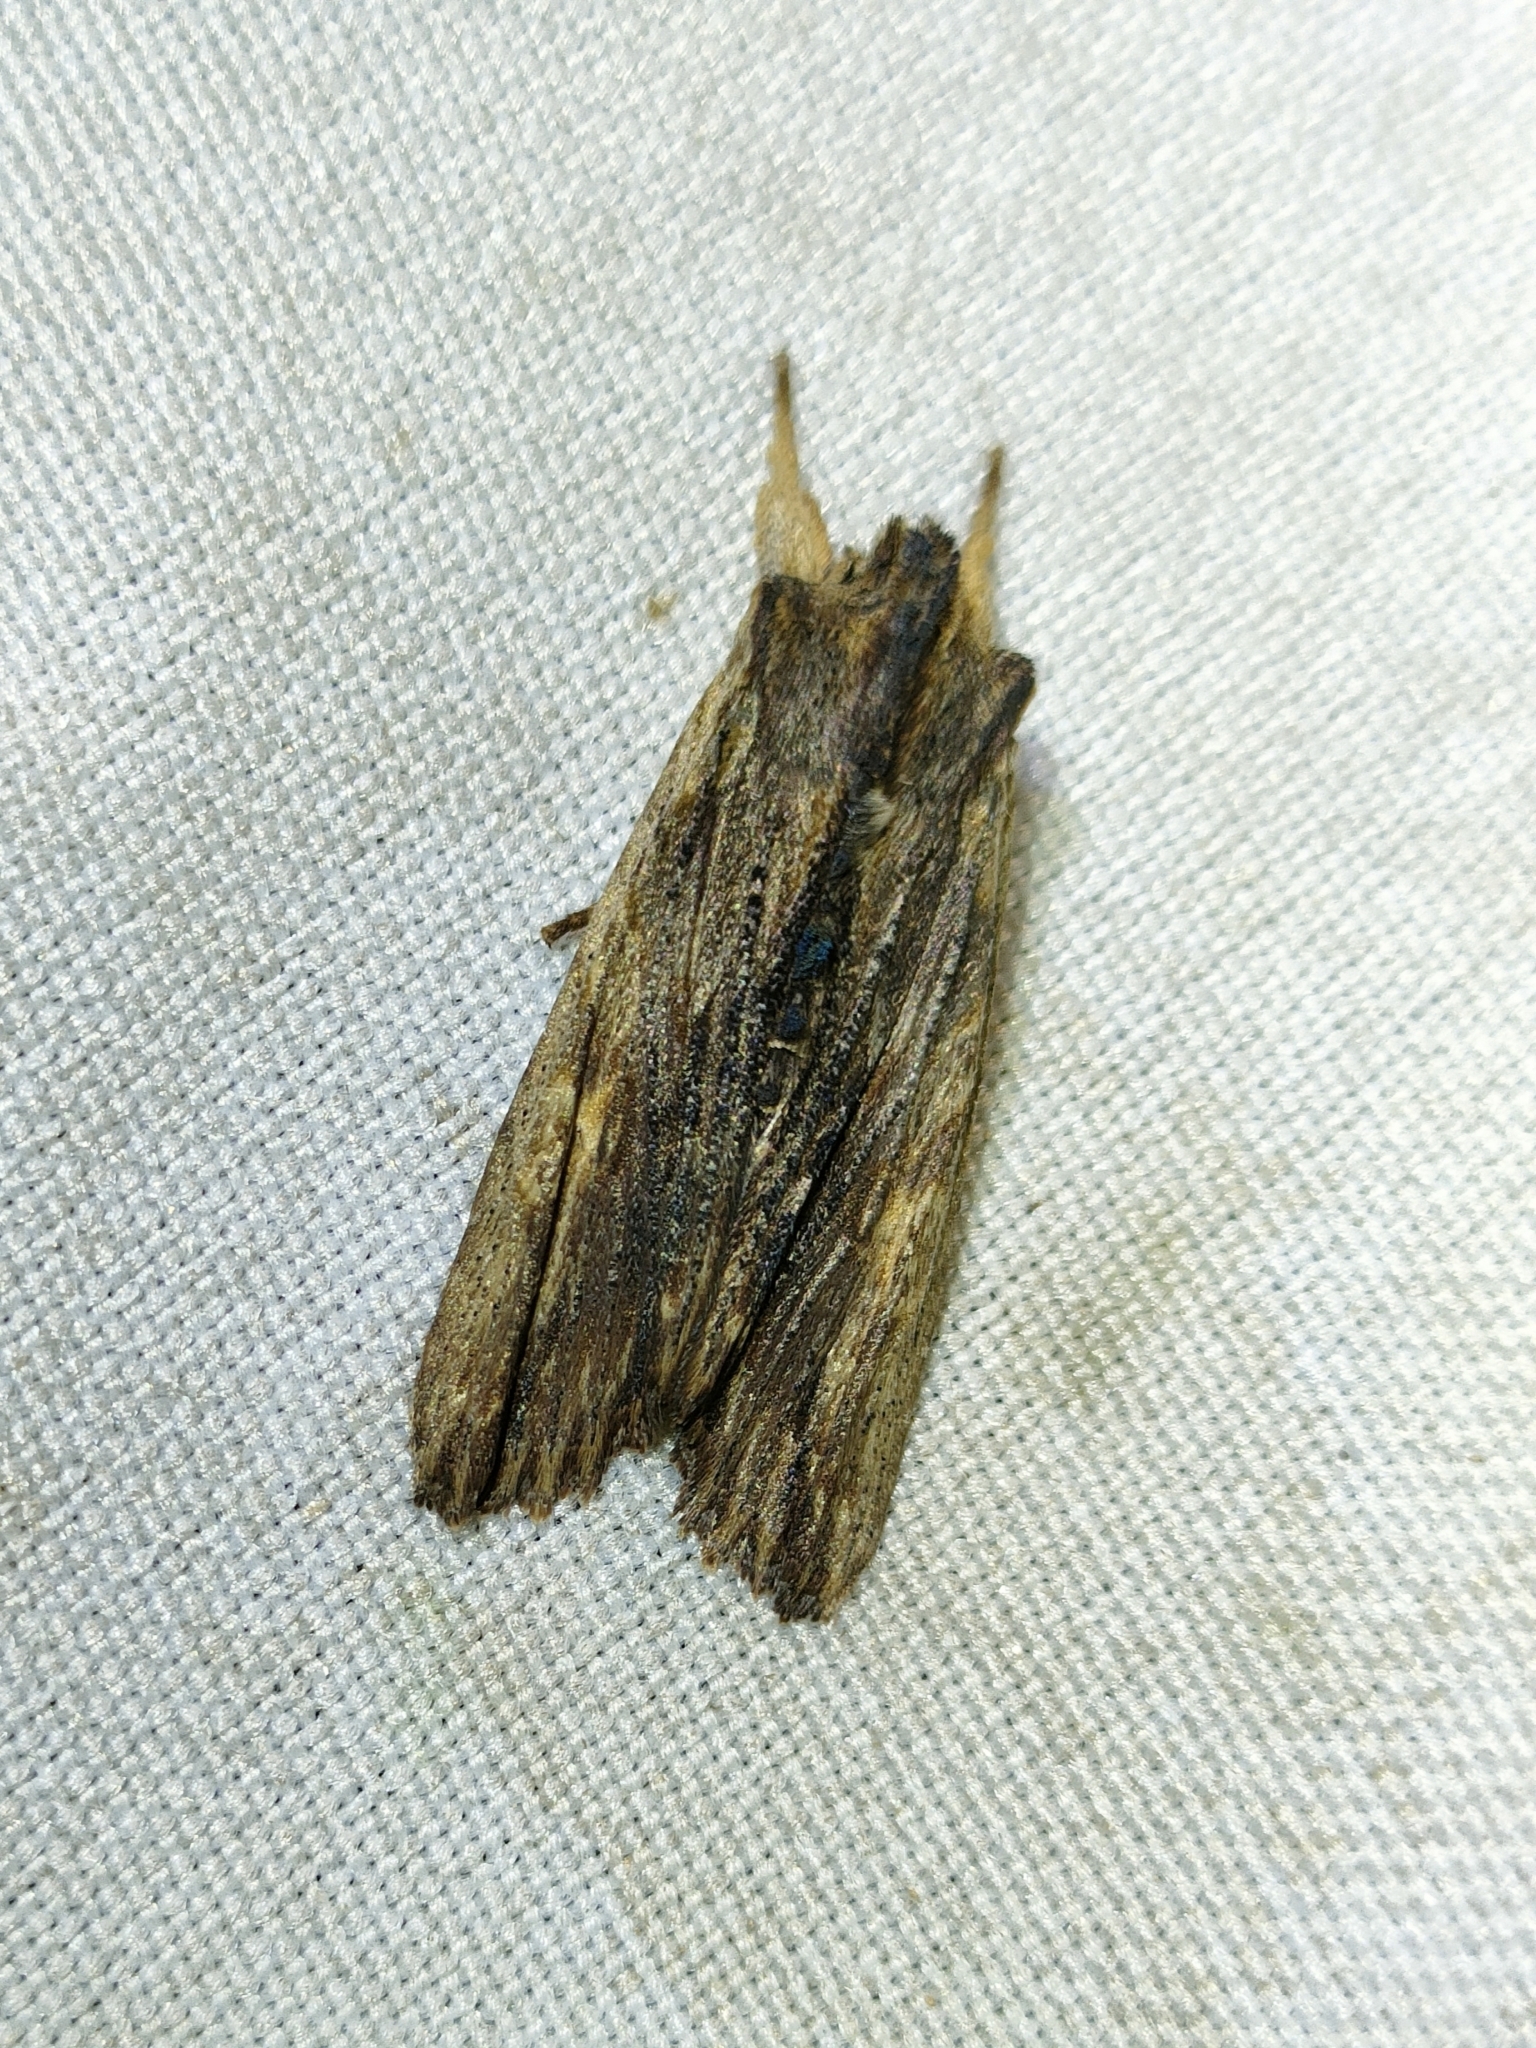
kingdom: Animalia
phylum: Arthropoda
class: Insecta
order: Lepidoptera
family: Noctuidae
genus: Lithophane
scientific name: Lithophane semibrunnea
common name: Tawny pinion
